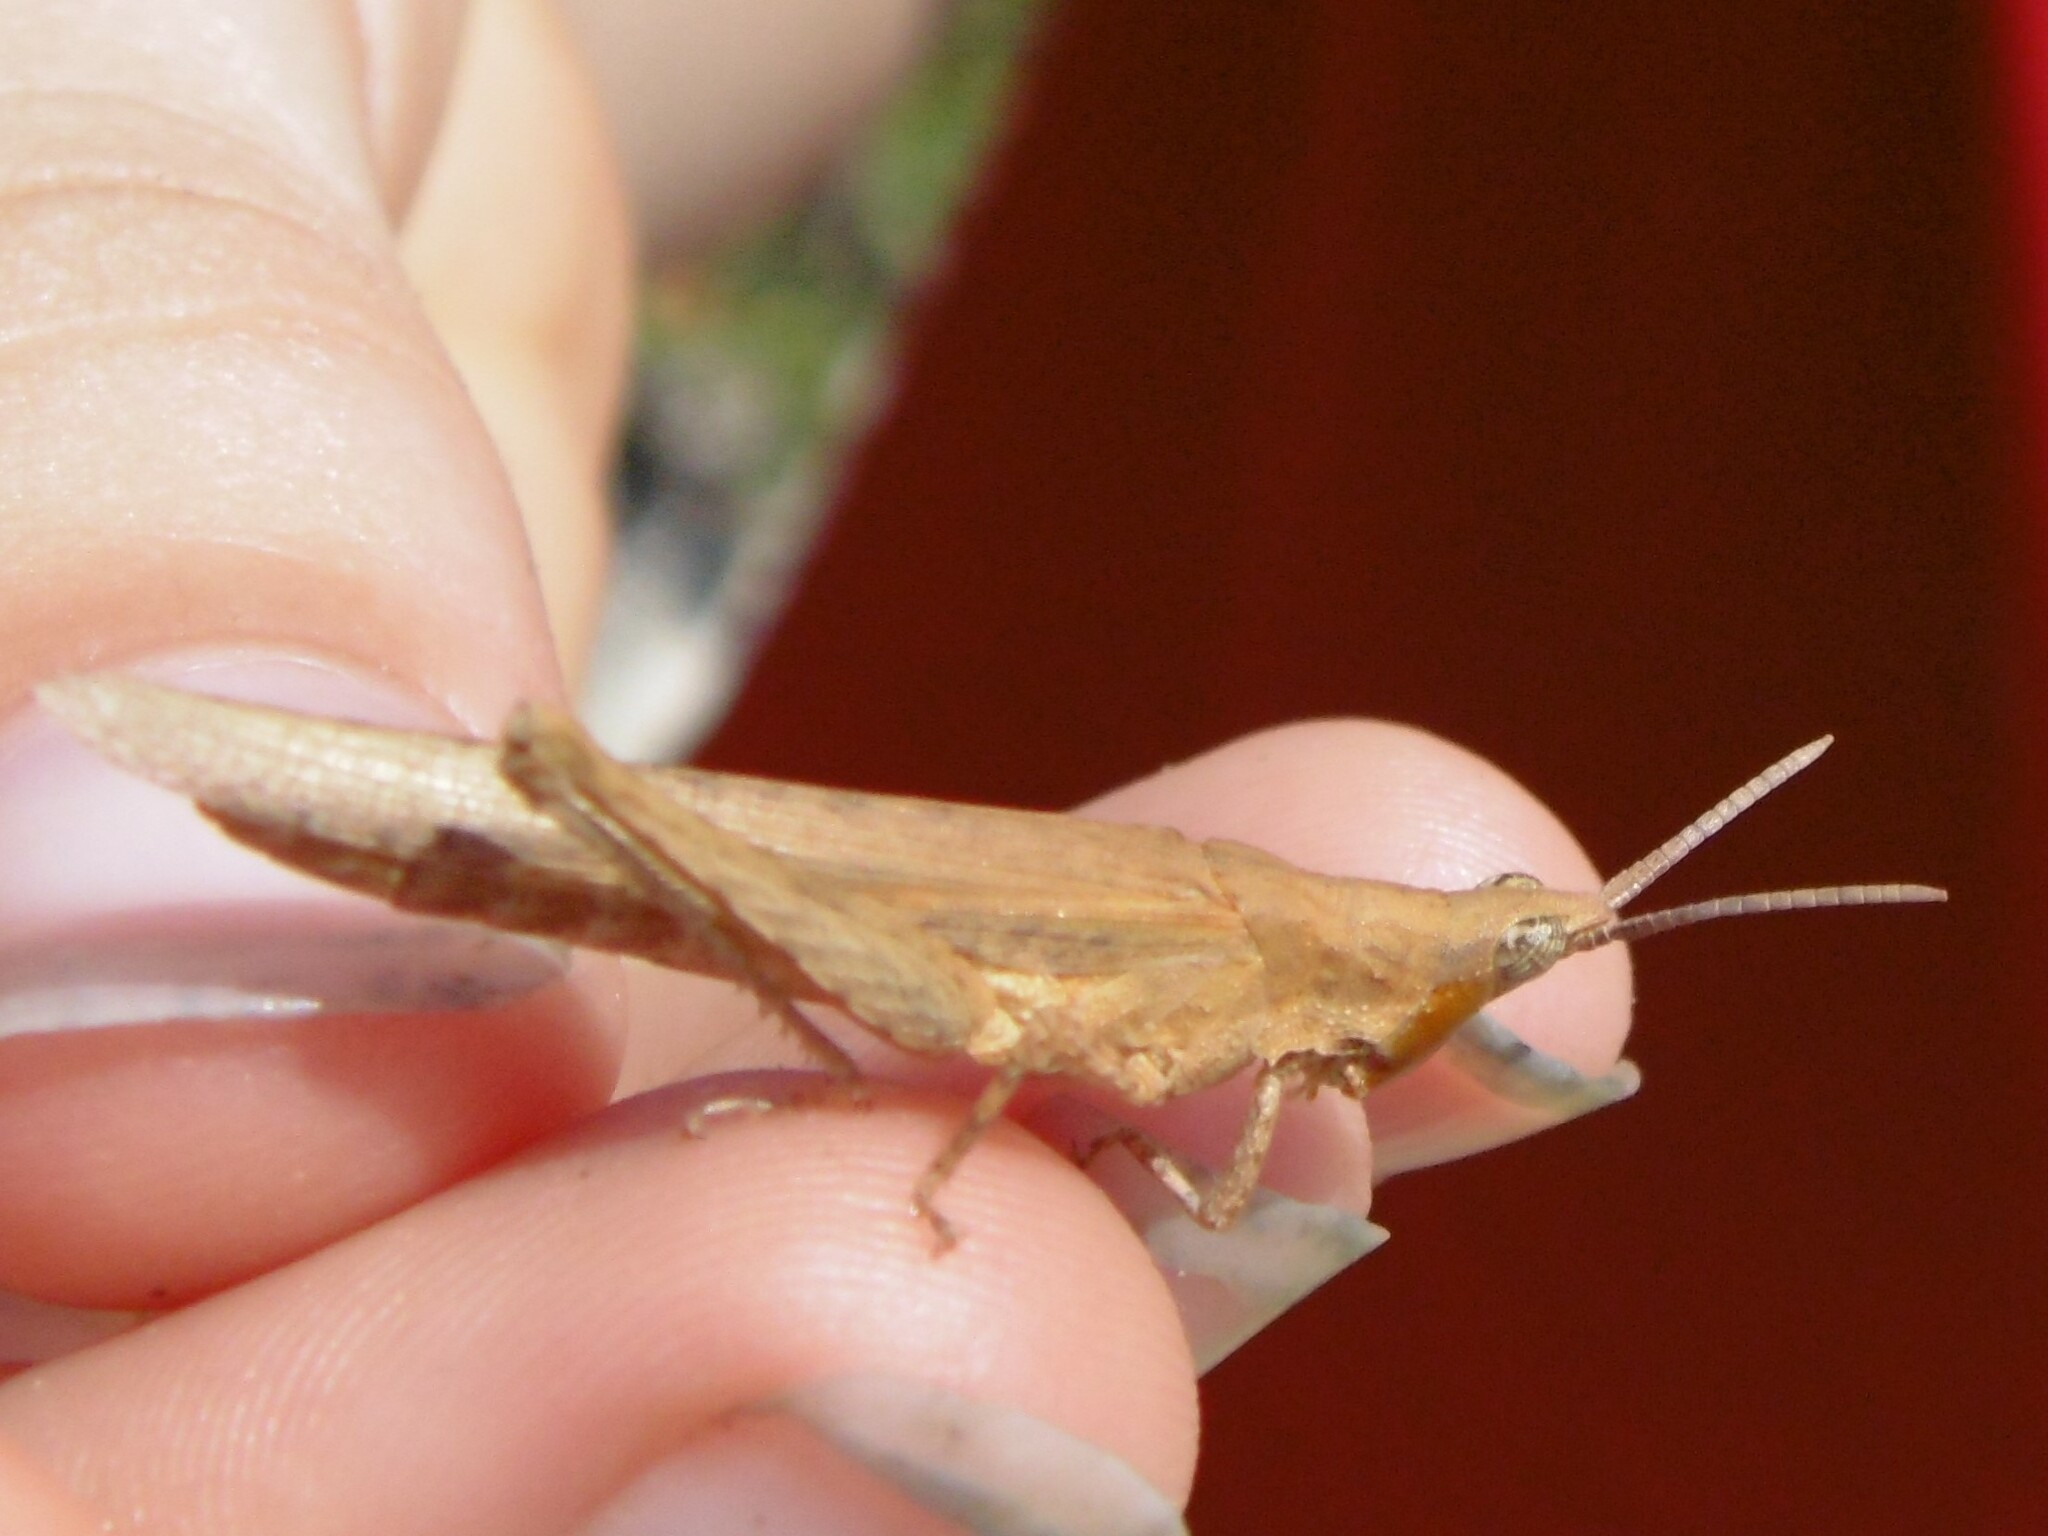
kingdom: Animalia
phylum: Arthropoda
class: Insecta
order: Orthoptera
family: Pyrgomorphidae
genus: Pyrgomorpha
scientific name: Pyrgomorpha conica
